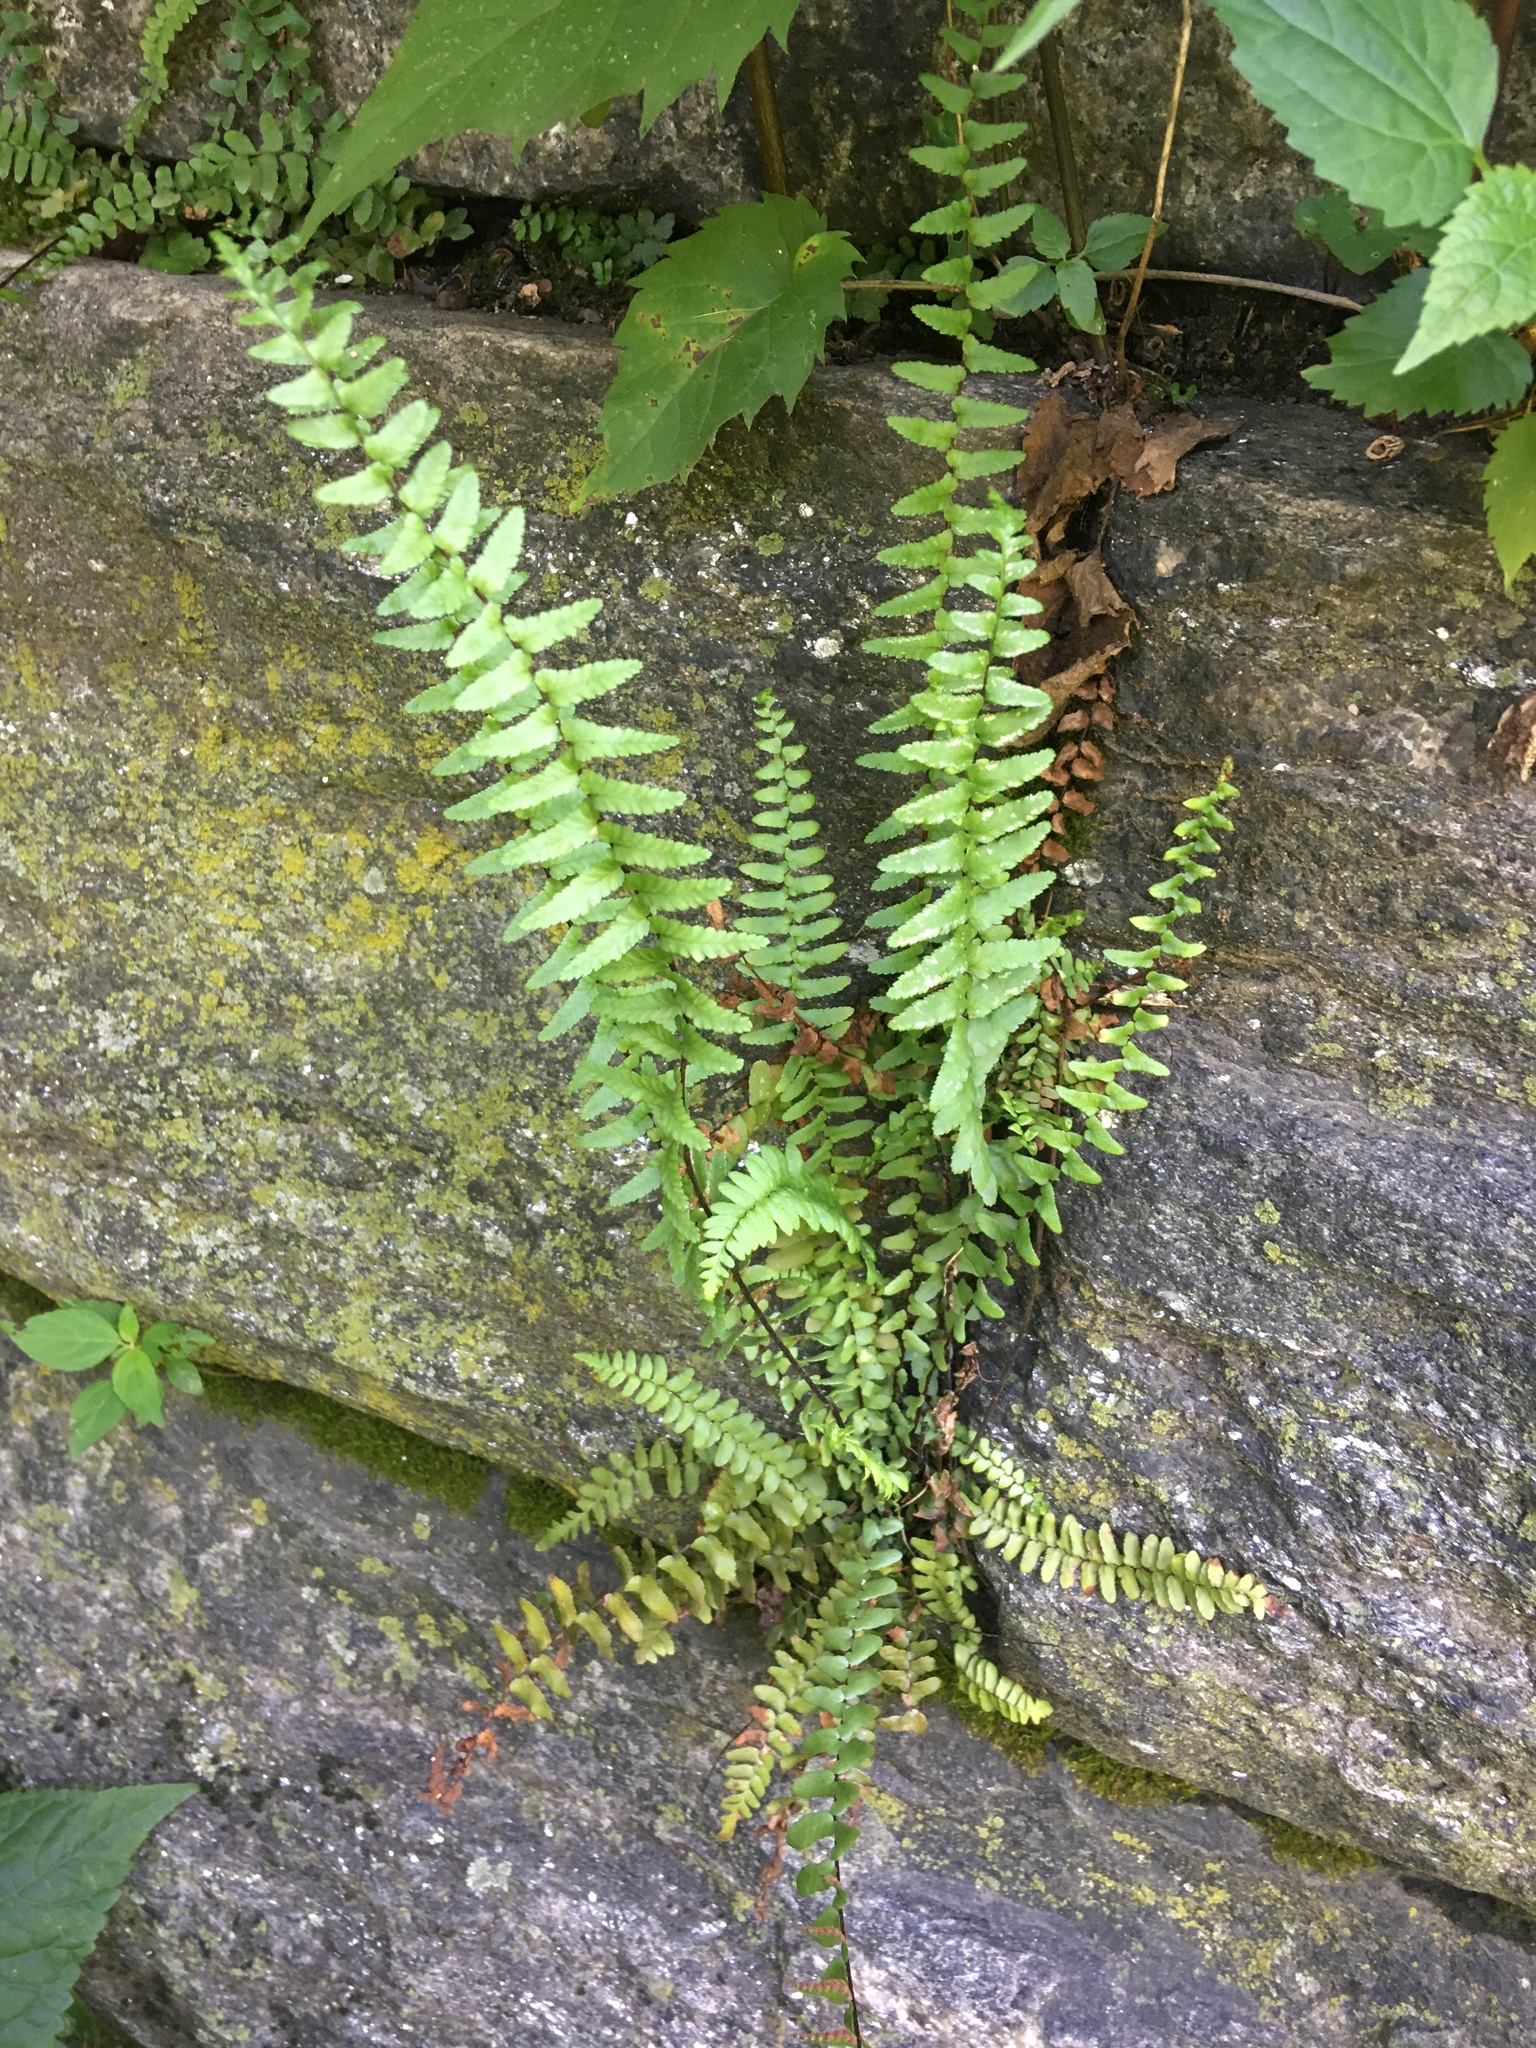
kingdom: Plantae
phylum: Tracheophyta
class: Polypodiopsida
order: Polypodiales
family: Aspleniaceae
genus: Asplenium
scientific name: Asplenium platyneuron
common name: Ebony spleenwort
